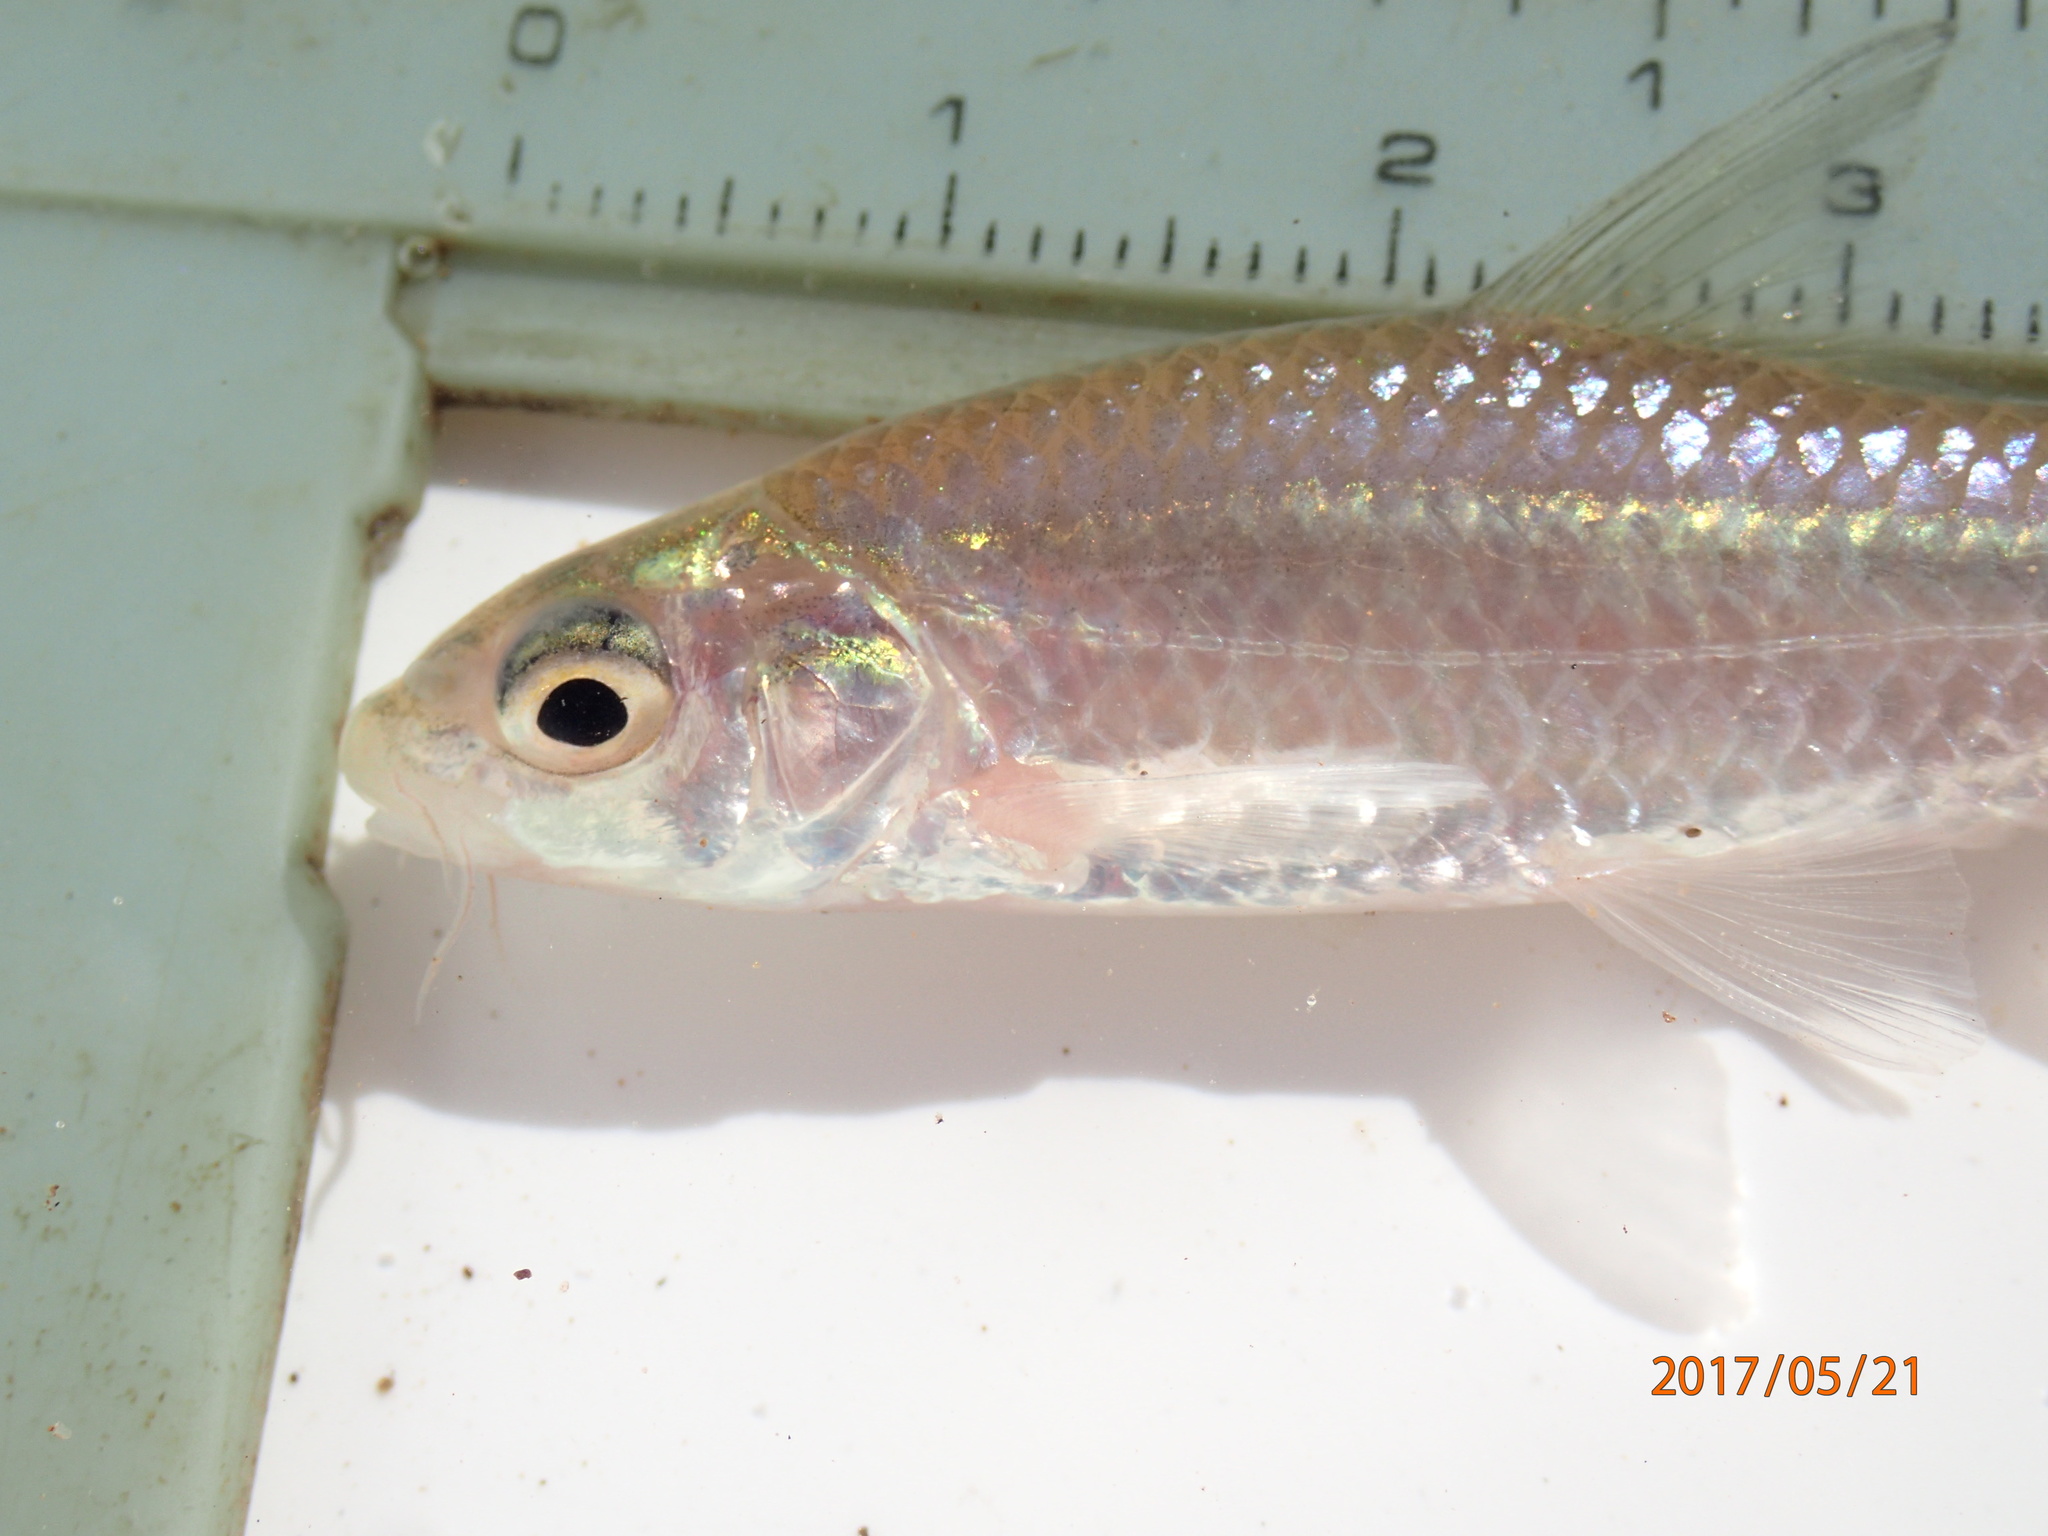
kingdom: Animalia
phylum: Chordata
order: Cypriniformes
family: Cyprinidae
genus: Enteromius
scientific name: Enteromius unitaeniatus
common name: Longbeard barb
